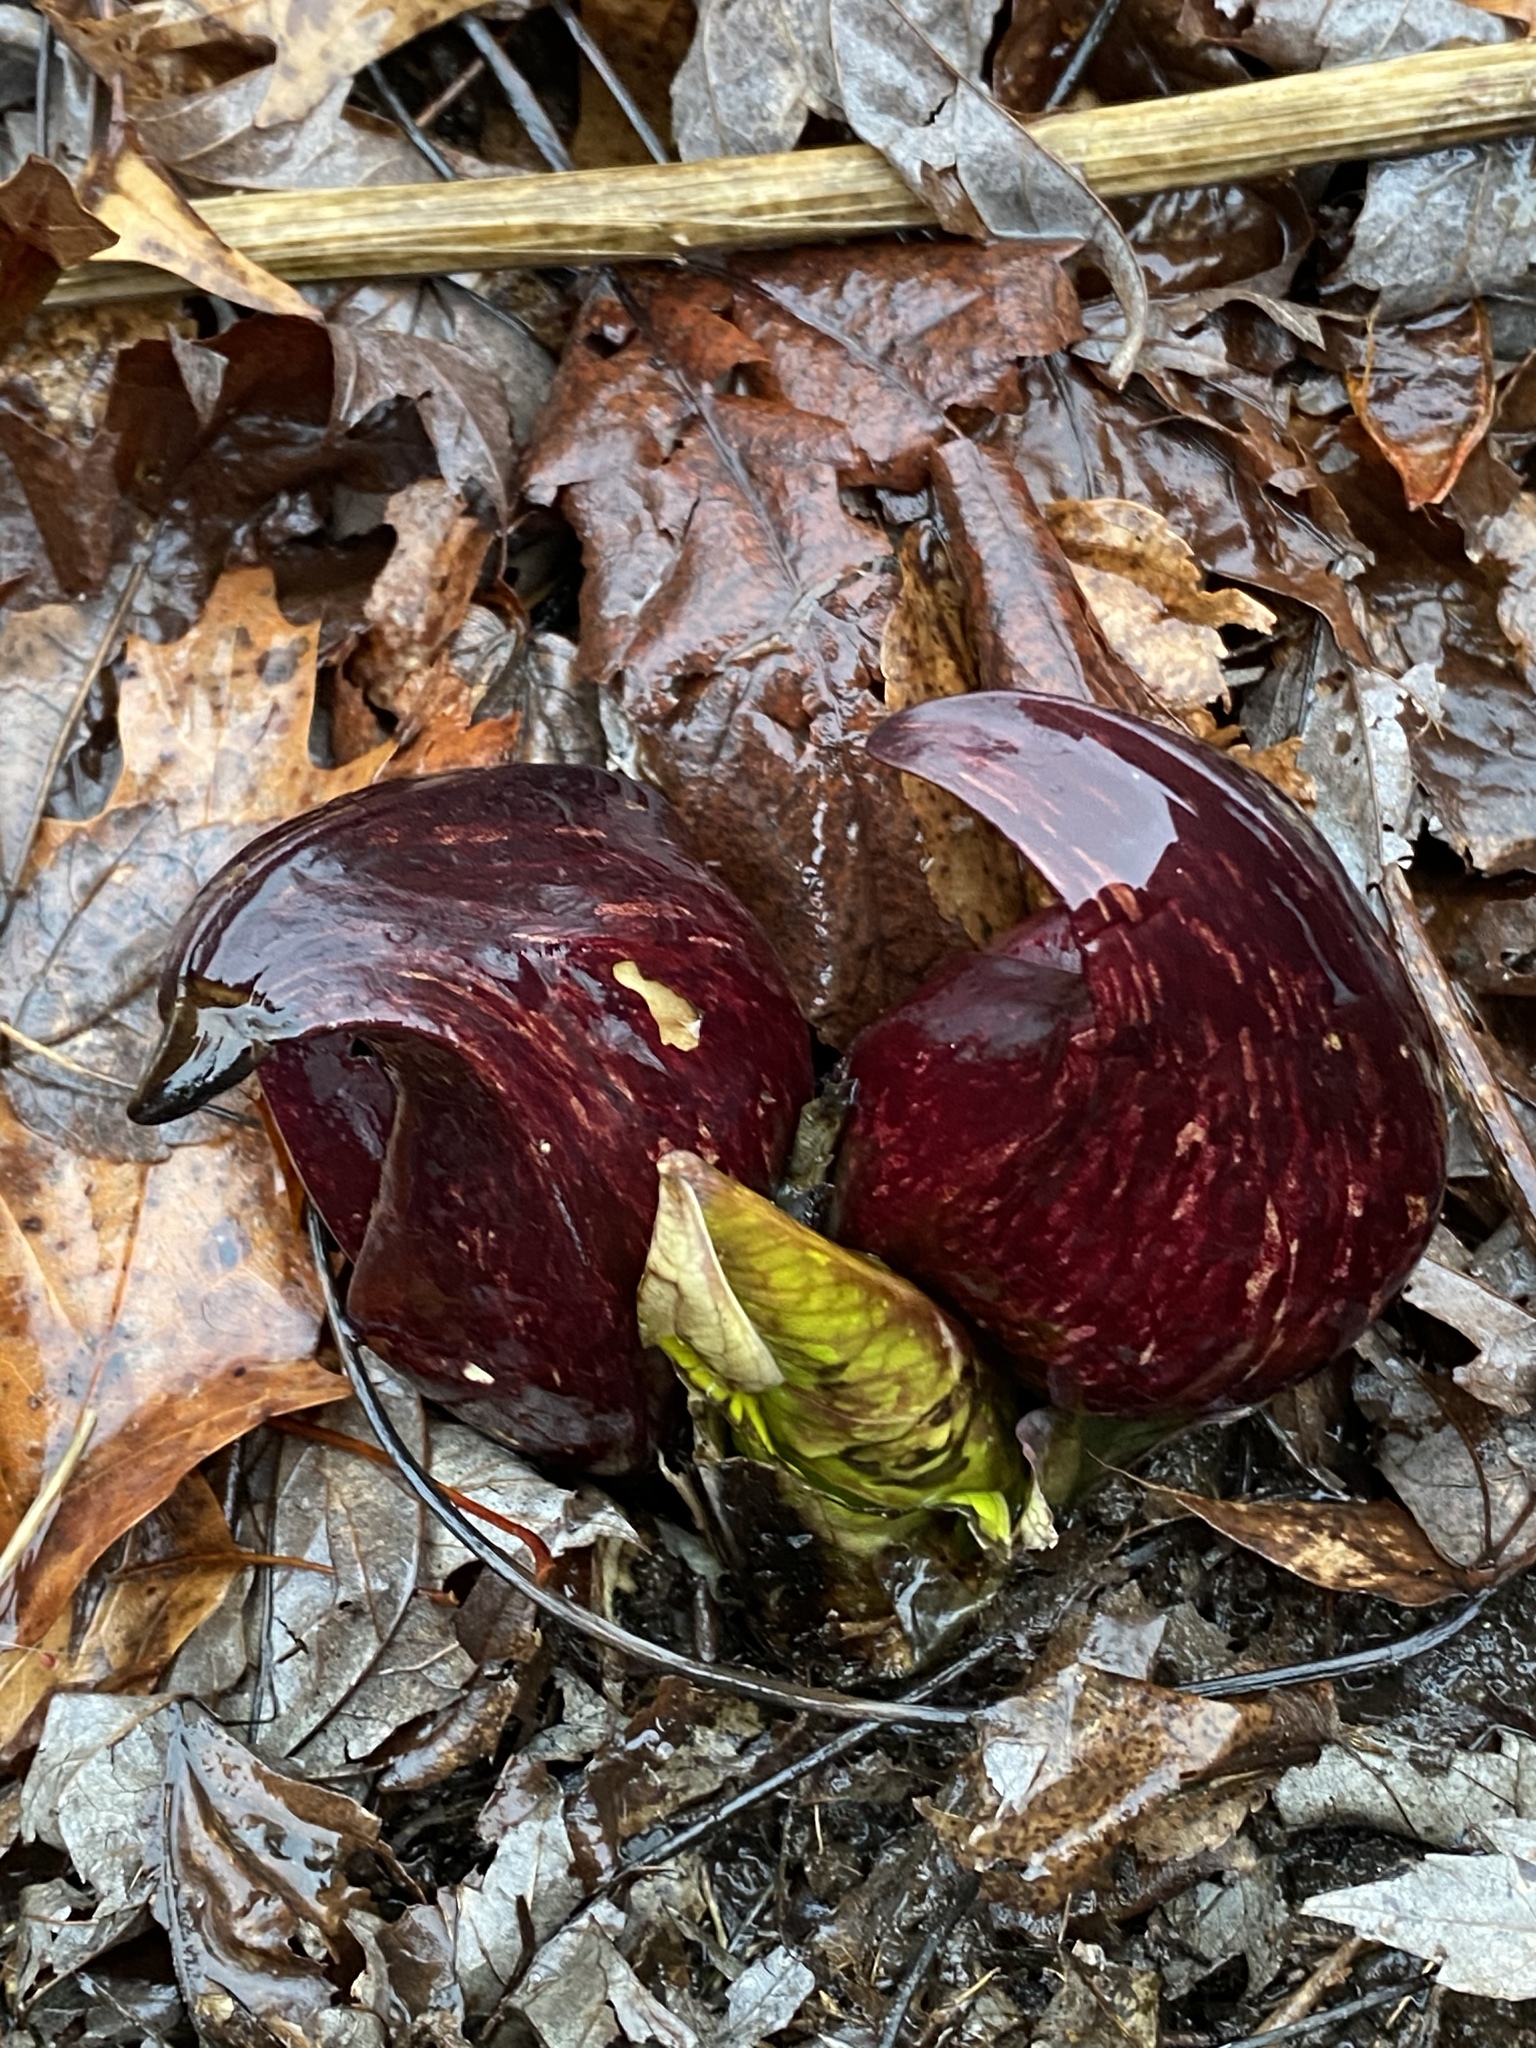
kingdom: Plantae
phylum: Tracheophyta
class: Liliopsida
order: Alismatales
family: Araceae
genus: Symplocarpus
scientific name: Symplocarpus foetidus
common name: Eastern skunk cabbage
